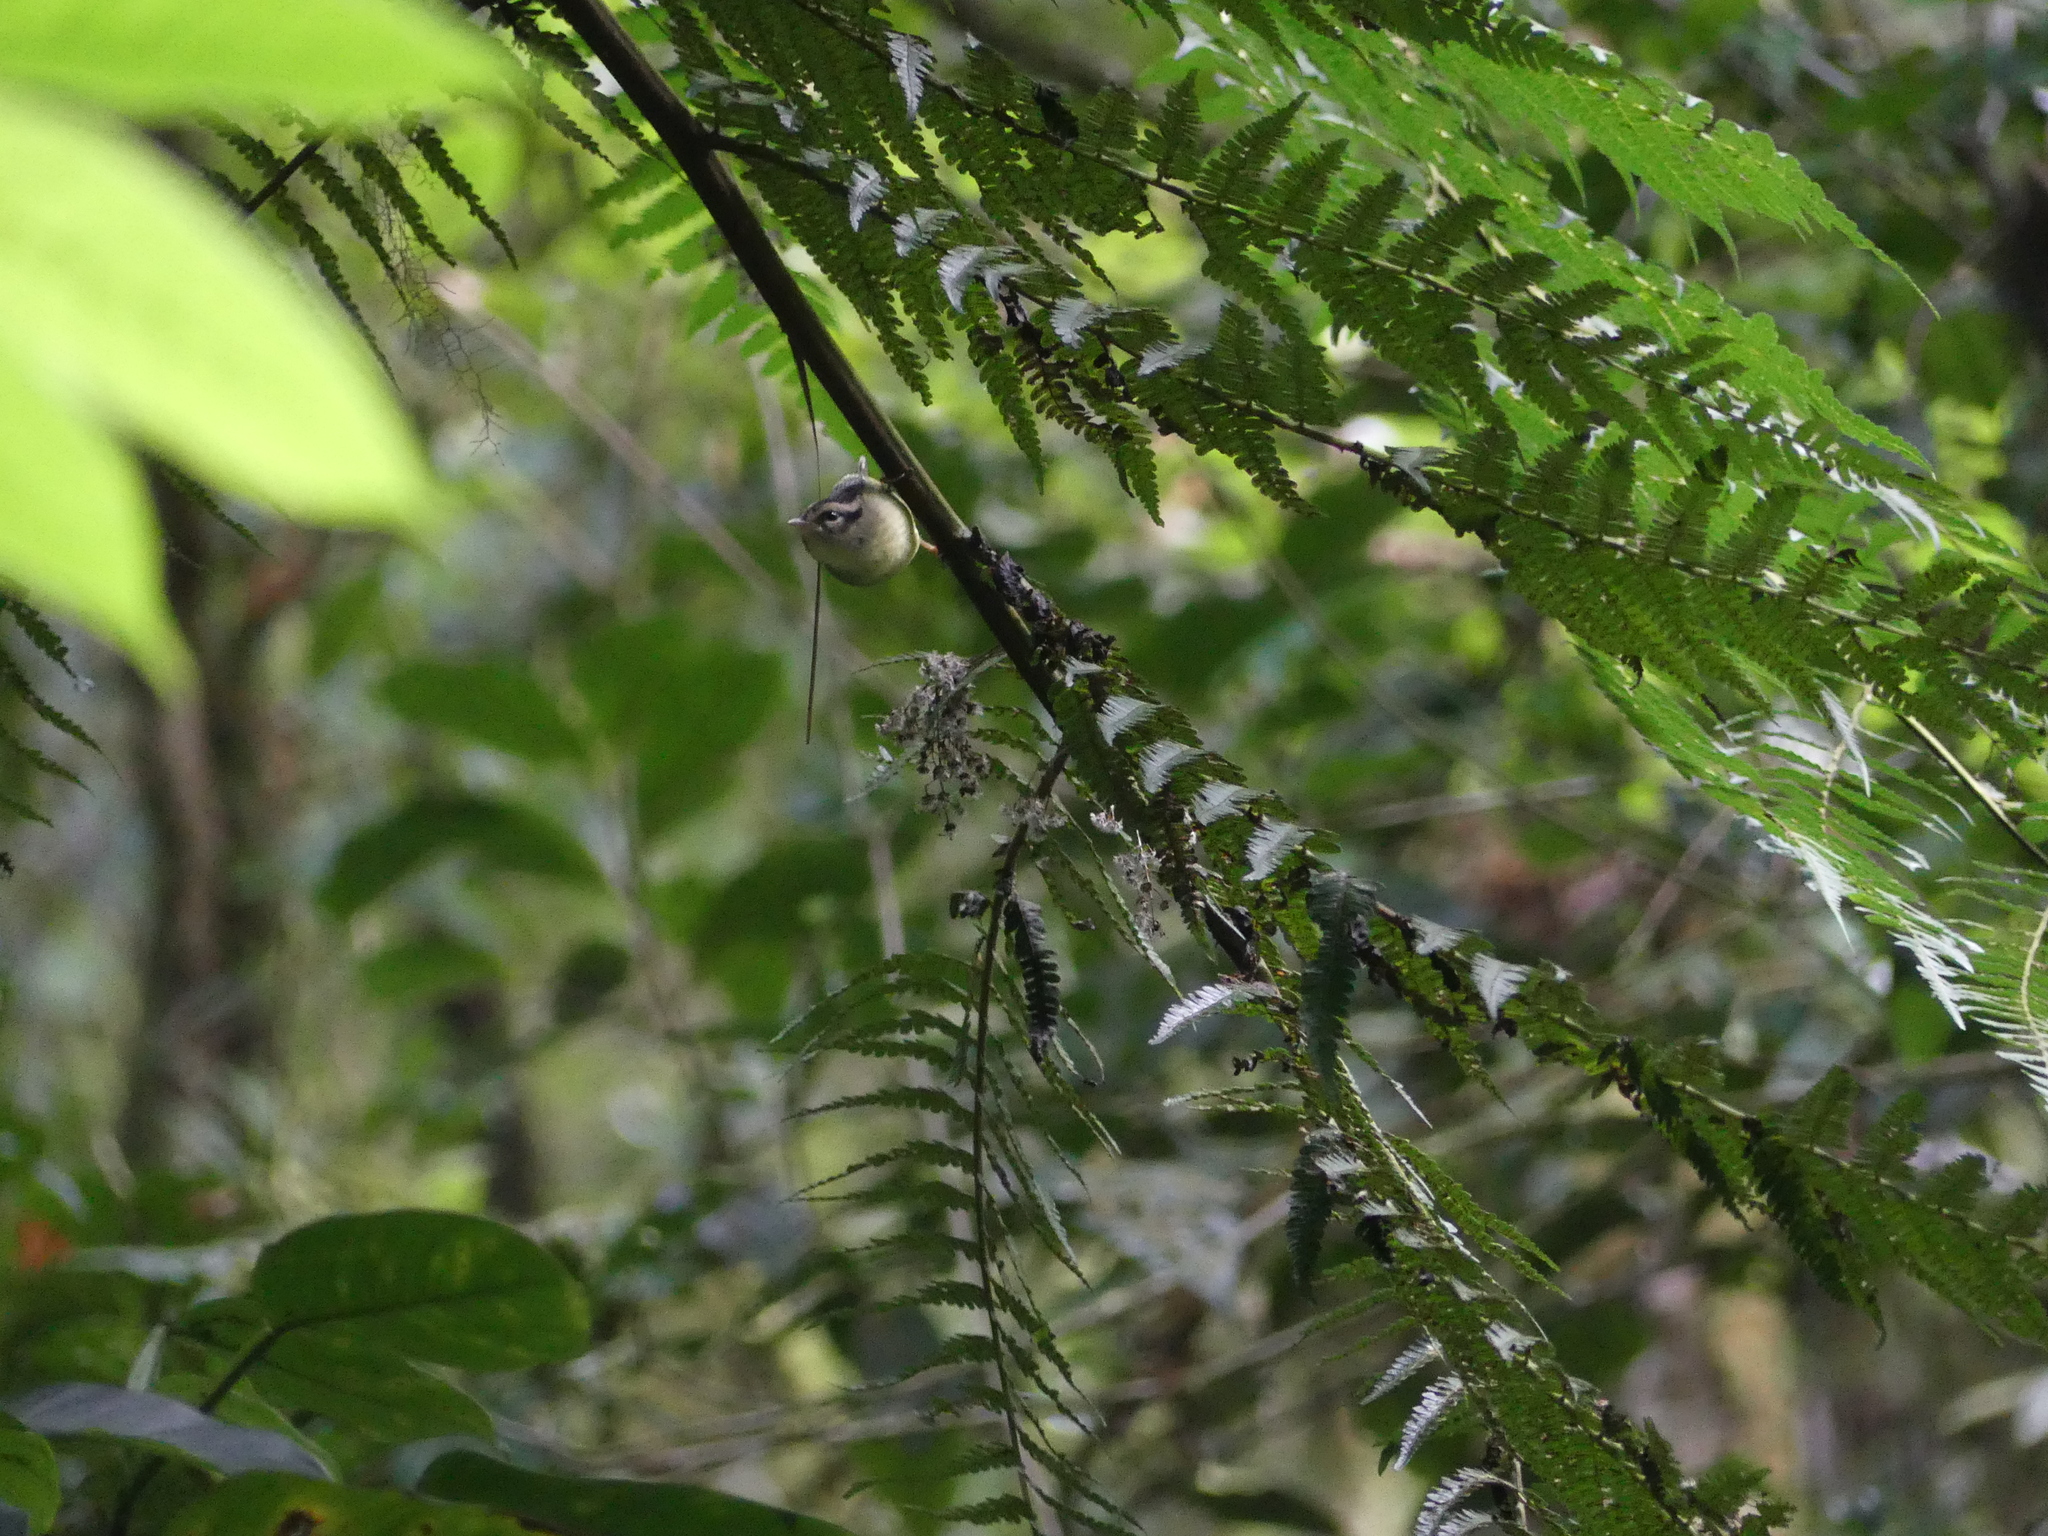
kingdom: Animalia
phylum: Chordata
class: Aves
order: Passeriformes
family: Parulidae
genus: Basileuterus
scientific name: Basileuterus melanotis
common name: Black-eared warbler
